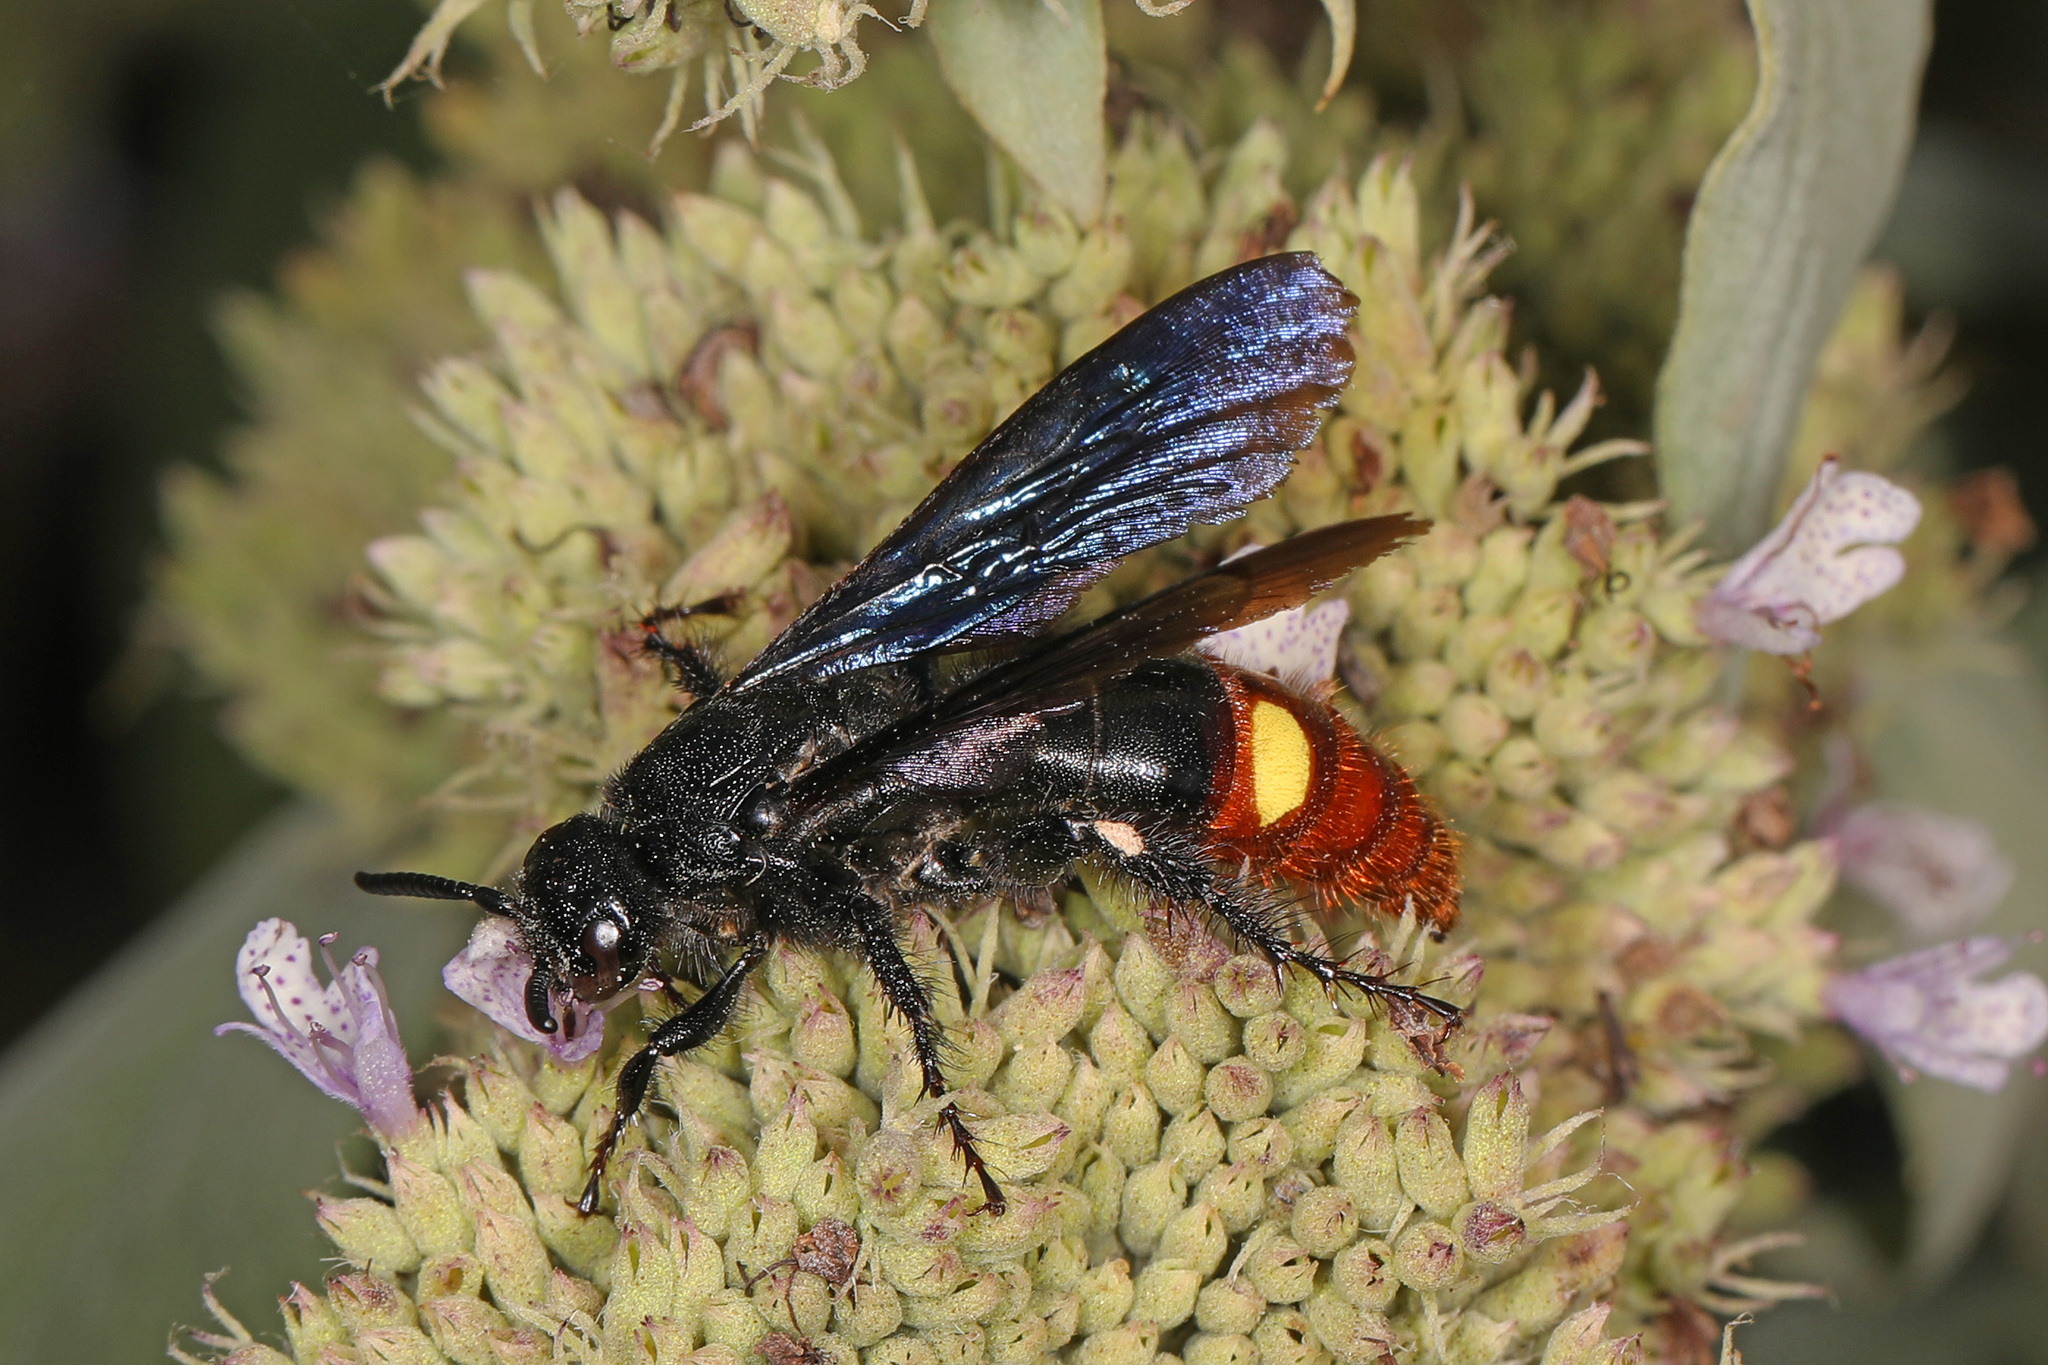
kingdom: Animalia
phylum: Arthropoda
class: Insecta
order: Hymenoptera
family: Scoliidae
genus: Scolia
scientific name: Scolia dubia
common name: Blue-winged scoliid wasp
